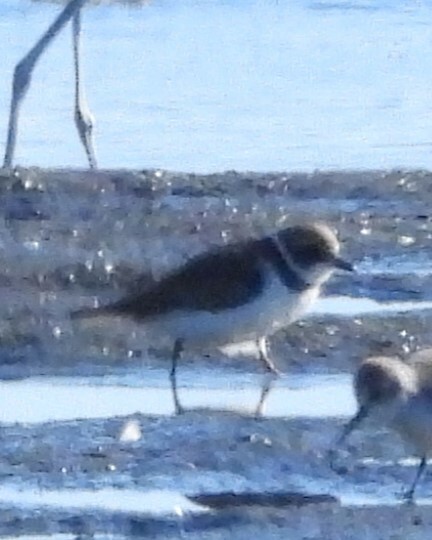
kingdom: Animalia
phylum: Chordata
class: Aves
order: Charadriiformes
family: Charadriidae
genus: Charadrius
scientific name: Charadrius semipalmatus
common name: Semipalmated plover
